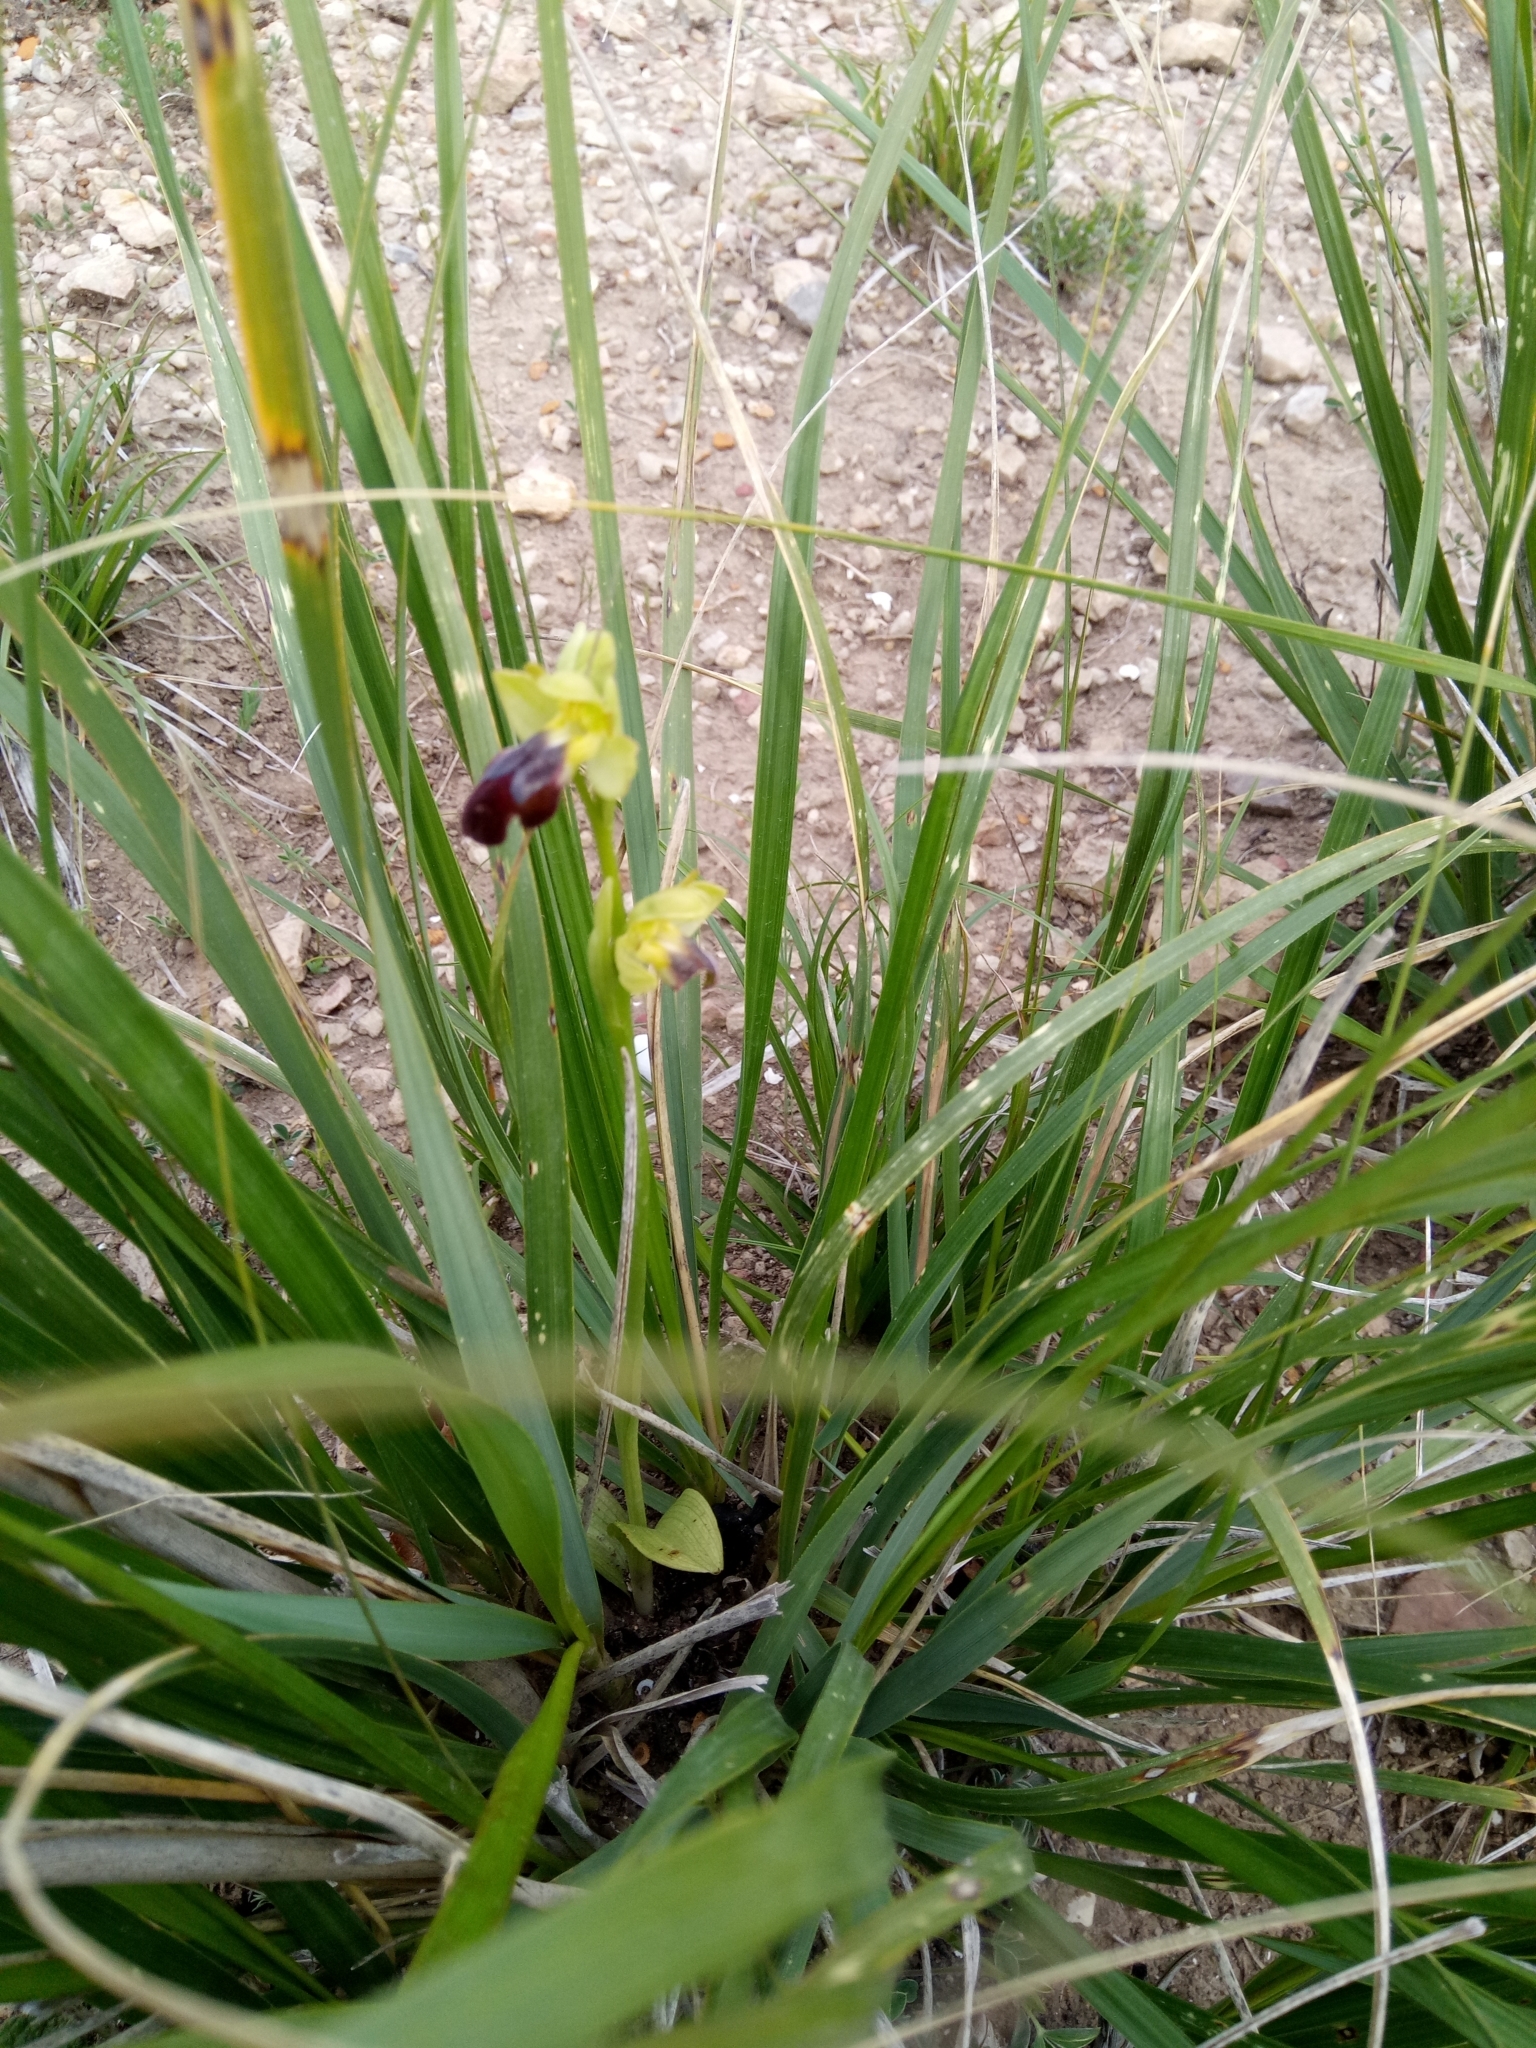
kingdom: Plantae
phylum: Tracheophyta
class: Liliopsida
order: Asparagales
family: Orchidaceae
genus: Ophrys
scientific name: Ophrys fusca
